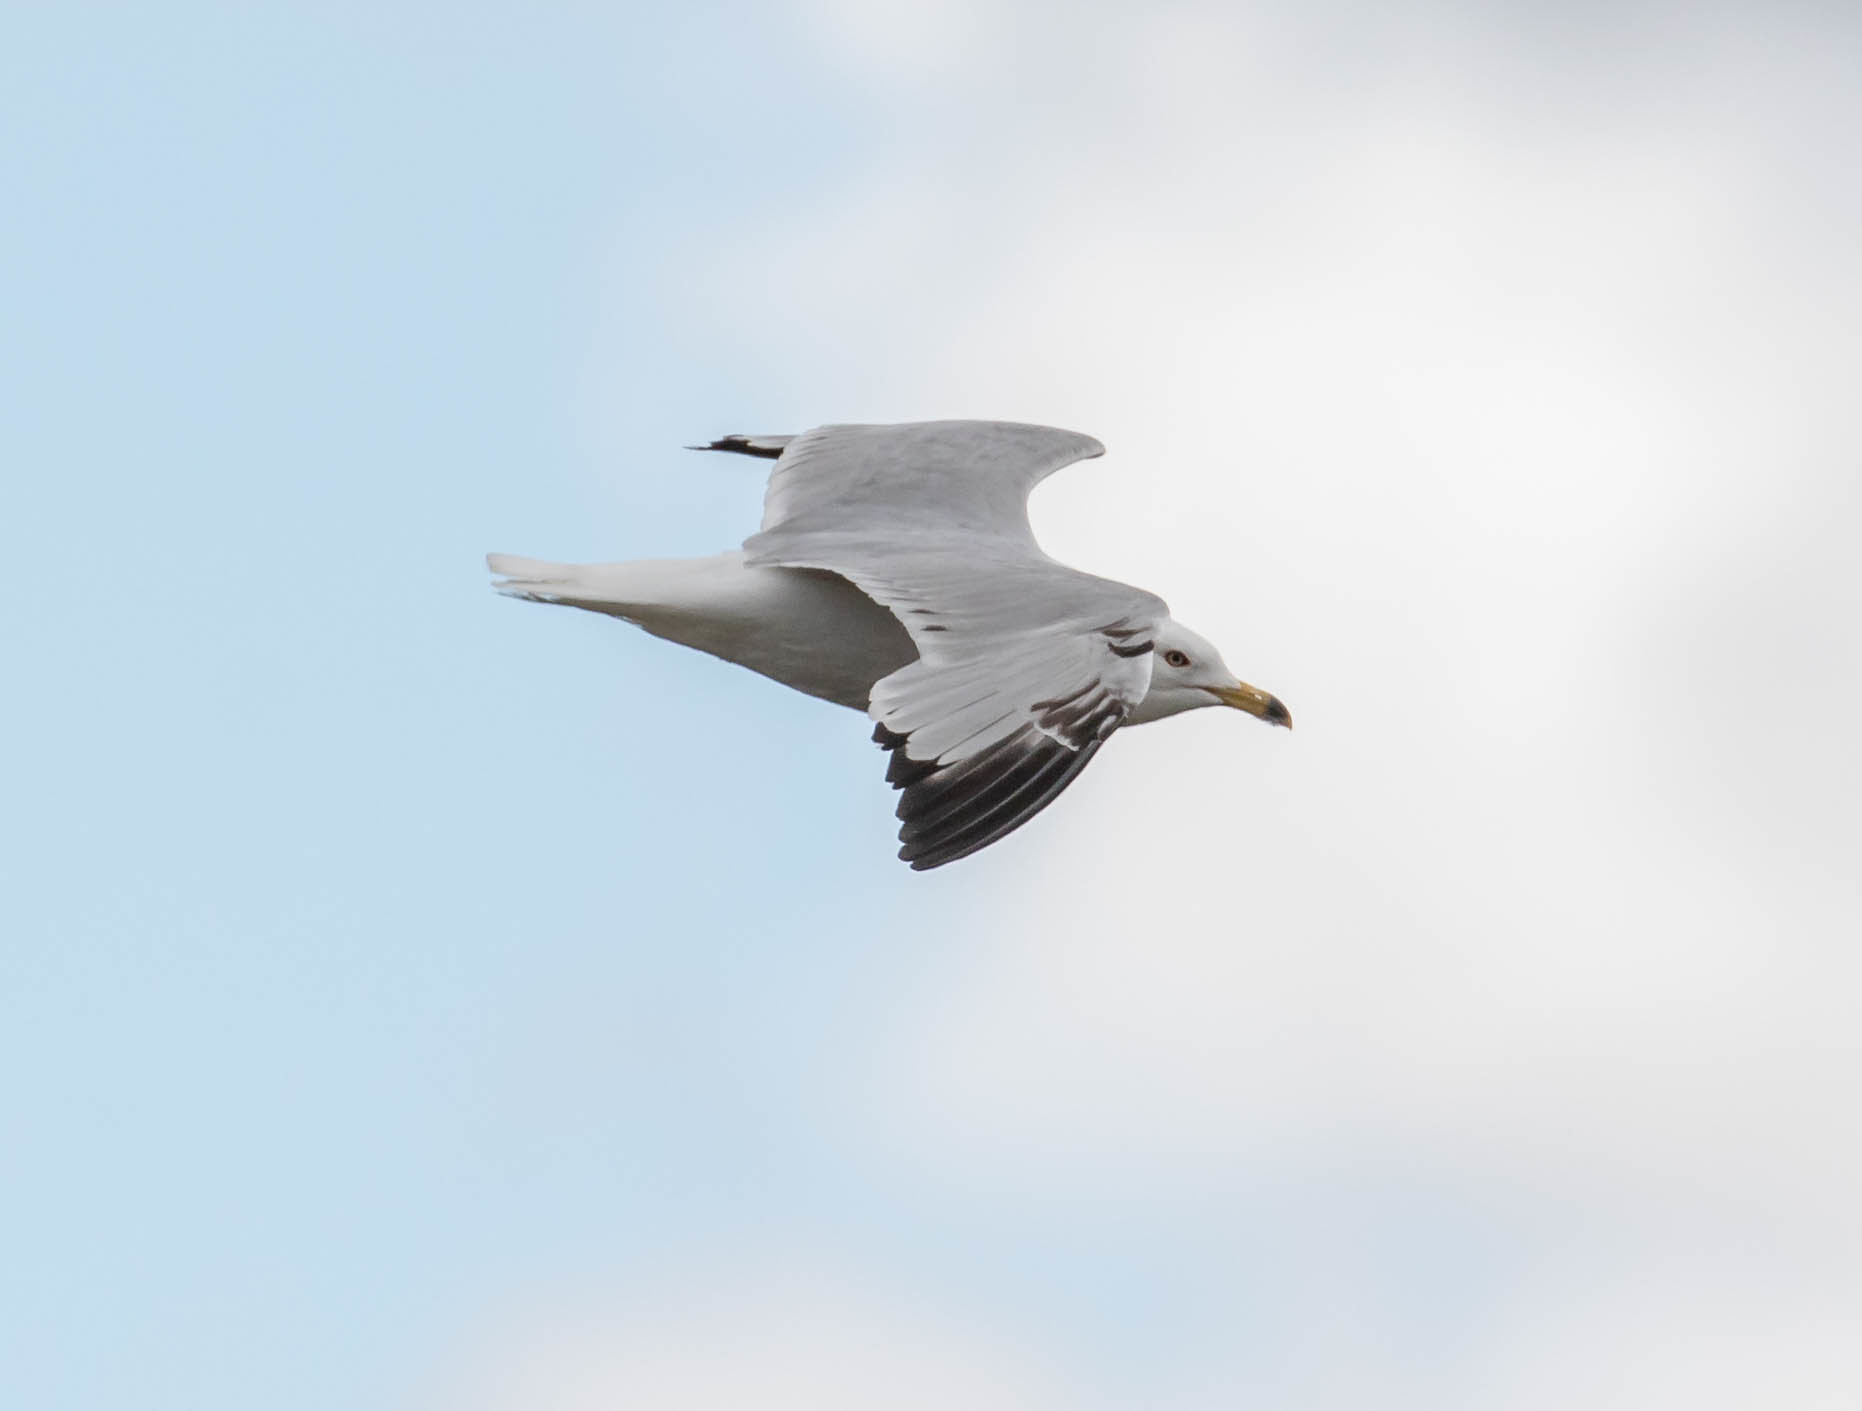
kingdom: Animalia
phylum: Chordata
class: Aves
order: Charadriiformes
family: Laridae
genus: Larus
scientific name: Larus californicus
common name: California gull
